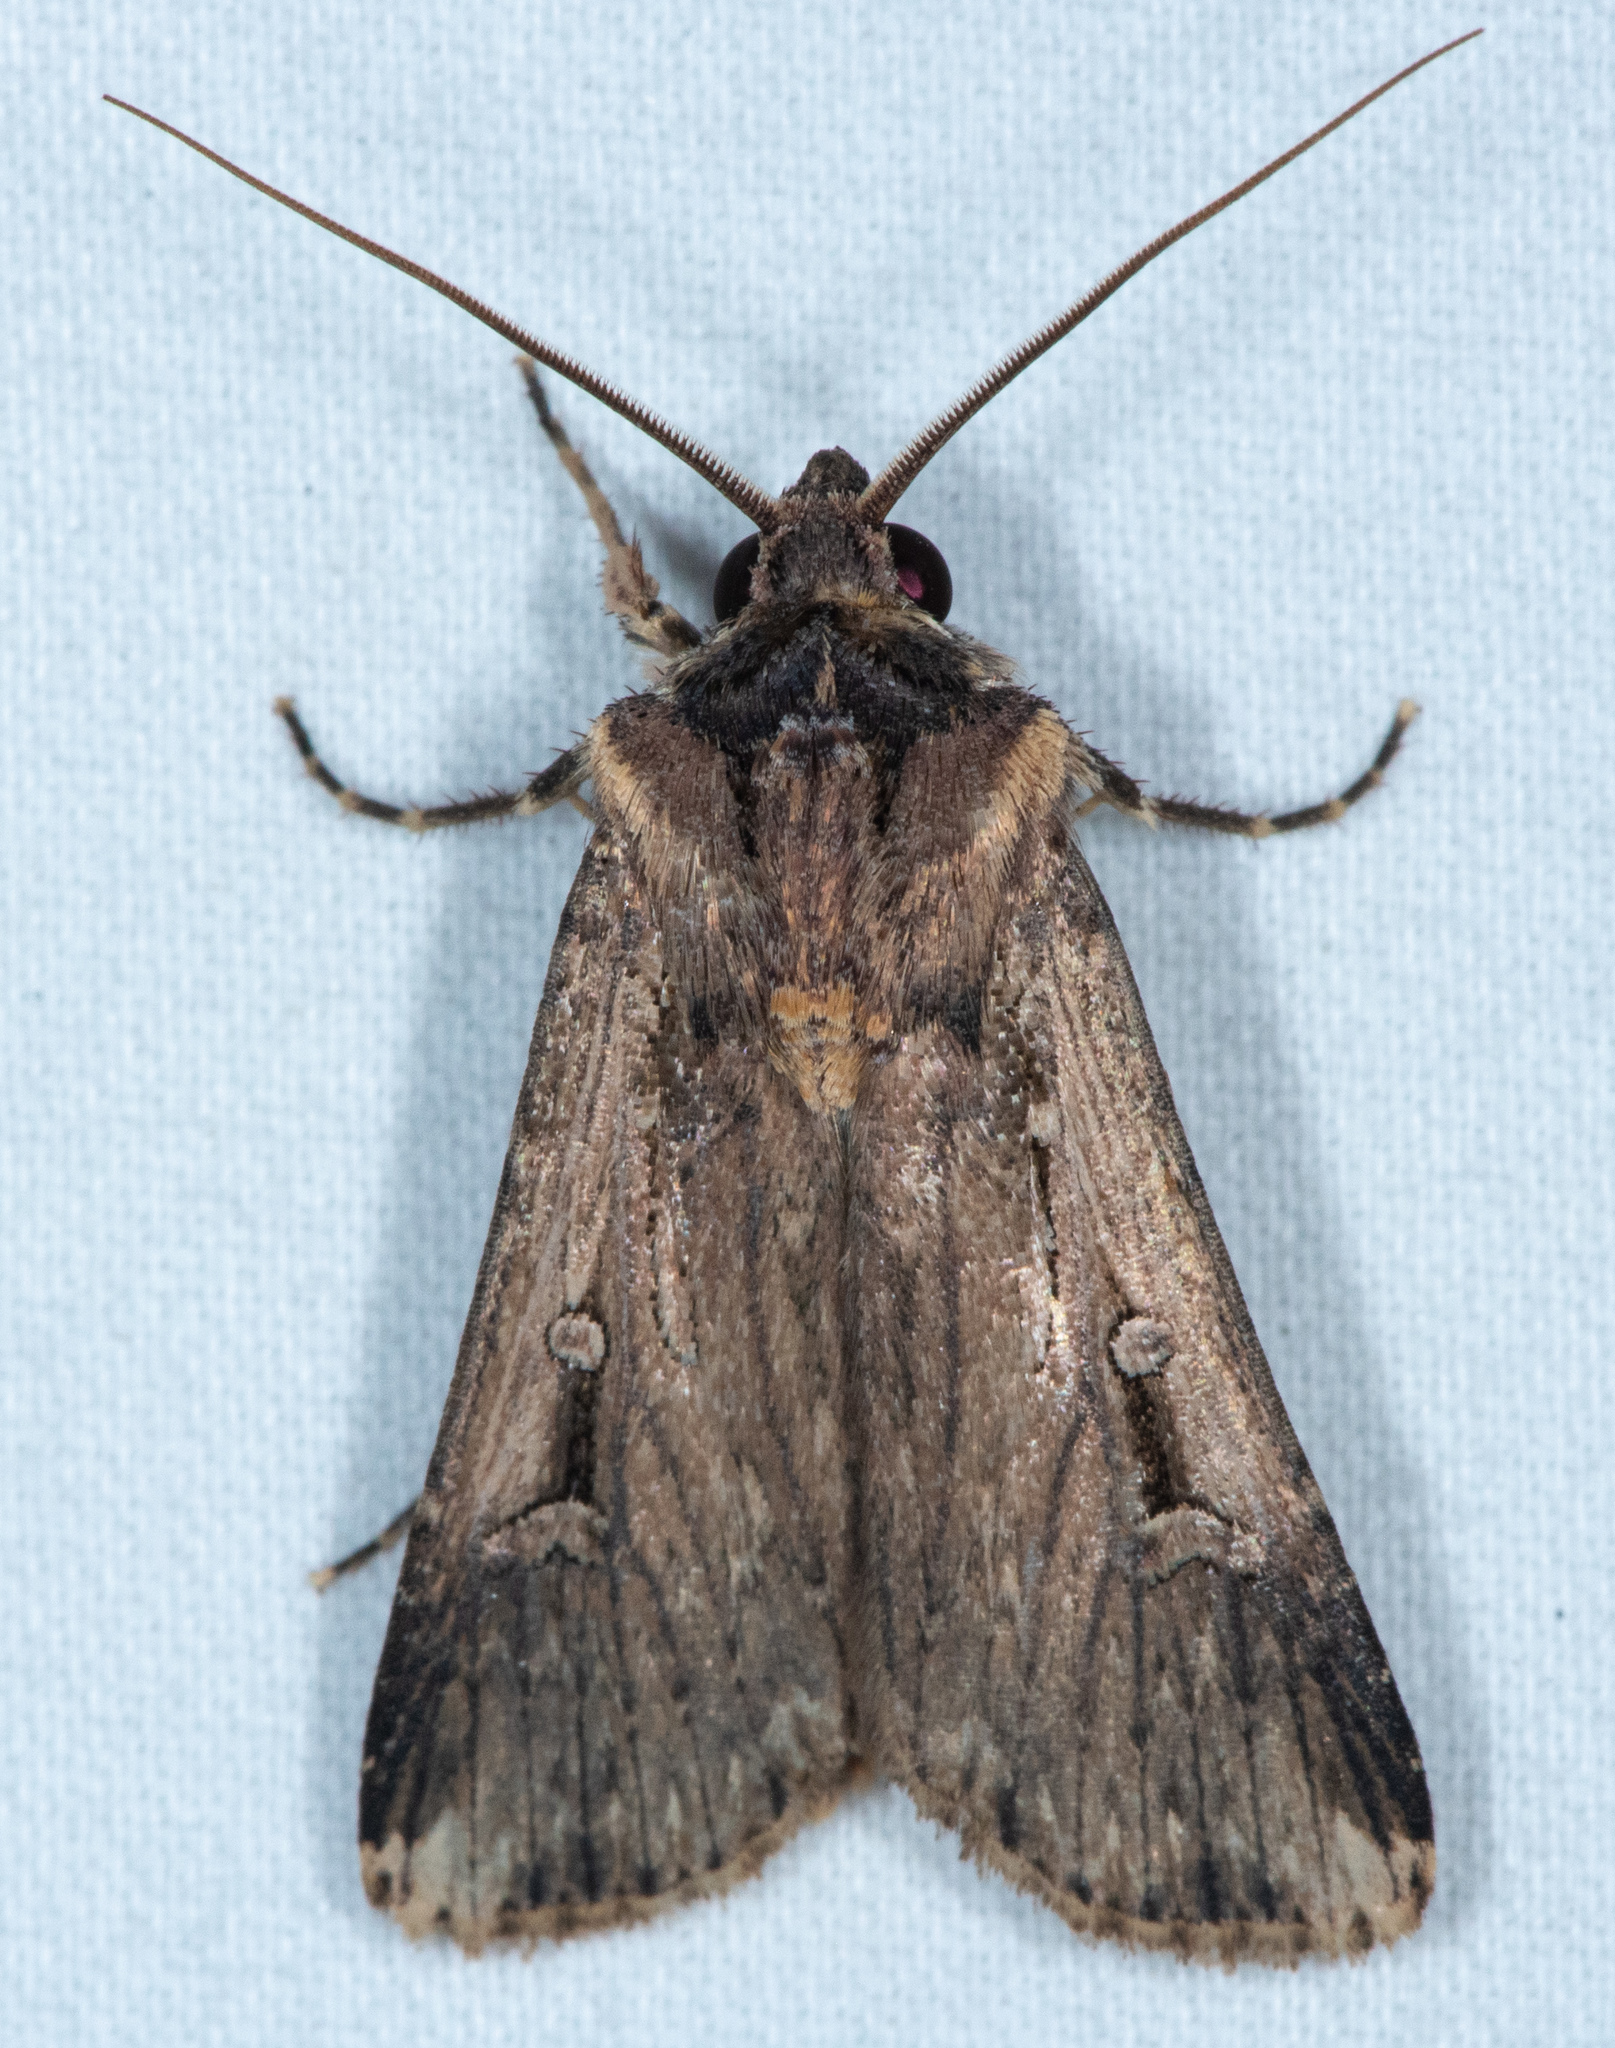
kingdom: Animalia
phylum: Arthropoda
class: Insecta
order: Lepidoptera
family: Noctuidae
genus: Feltia
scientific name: Feltia subterranea
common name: Granulate cutworm
